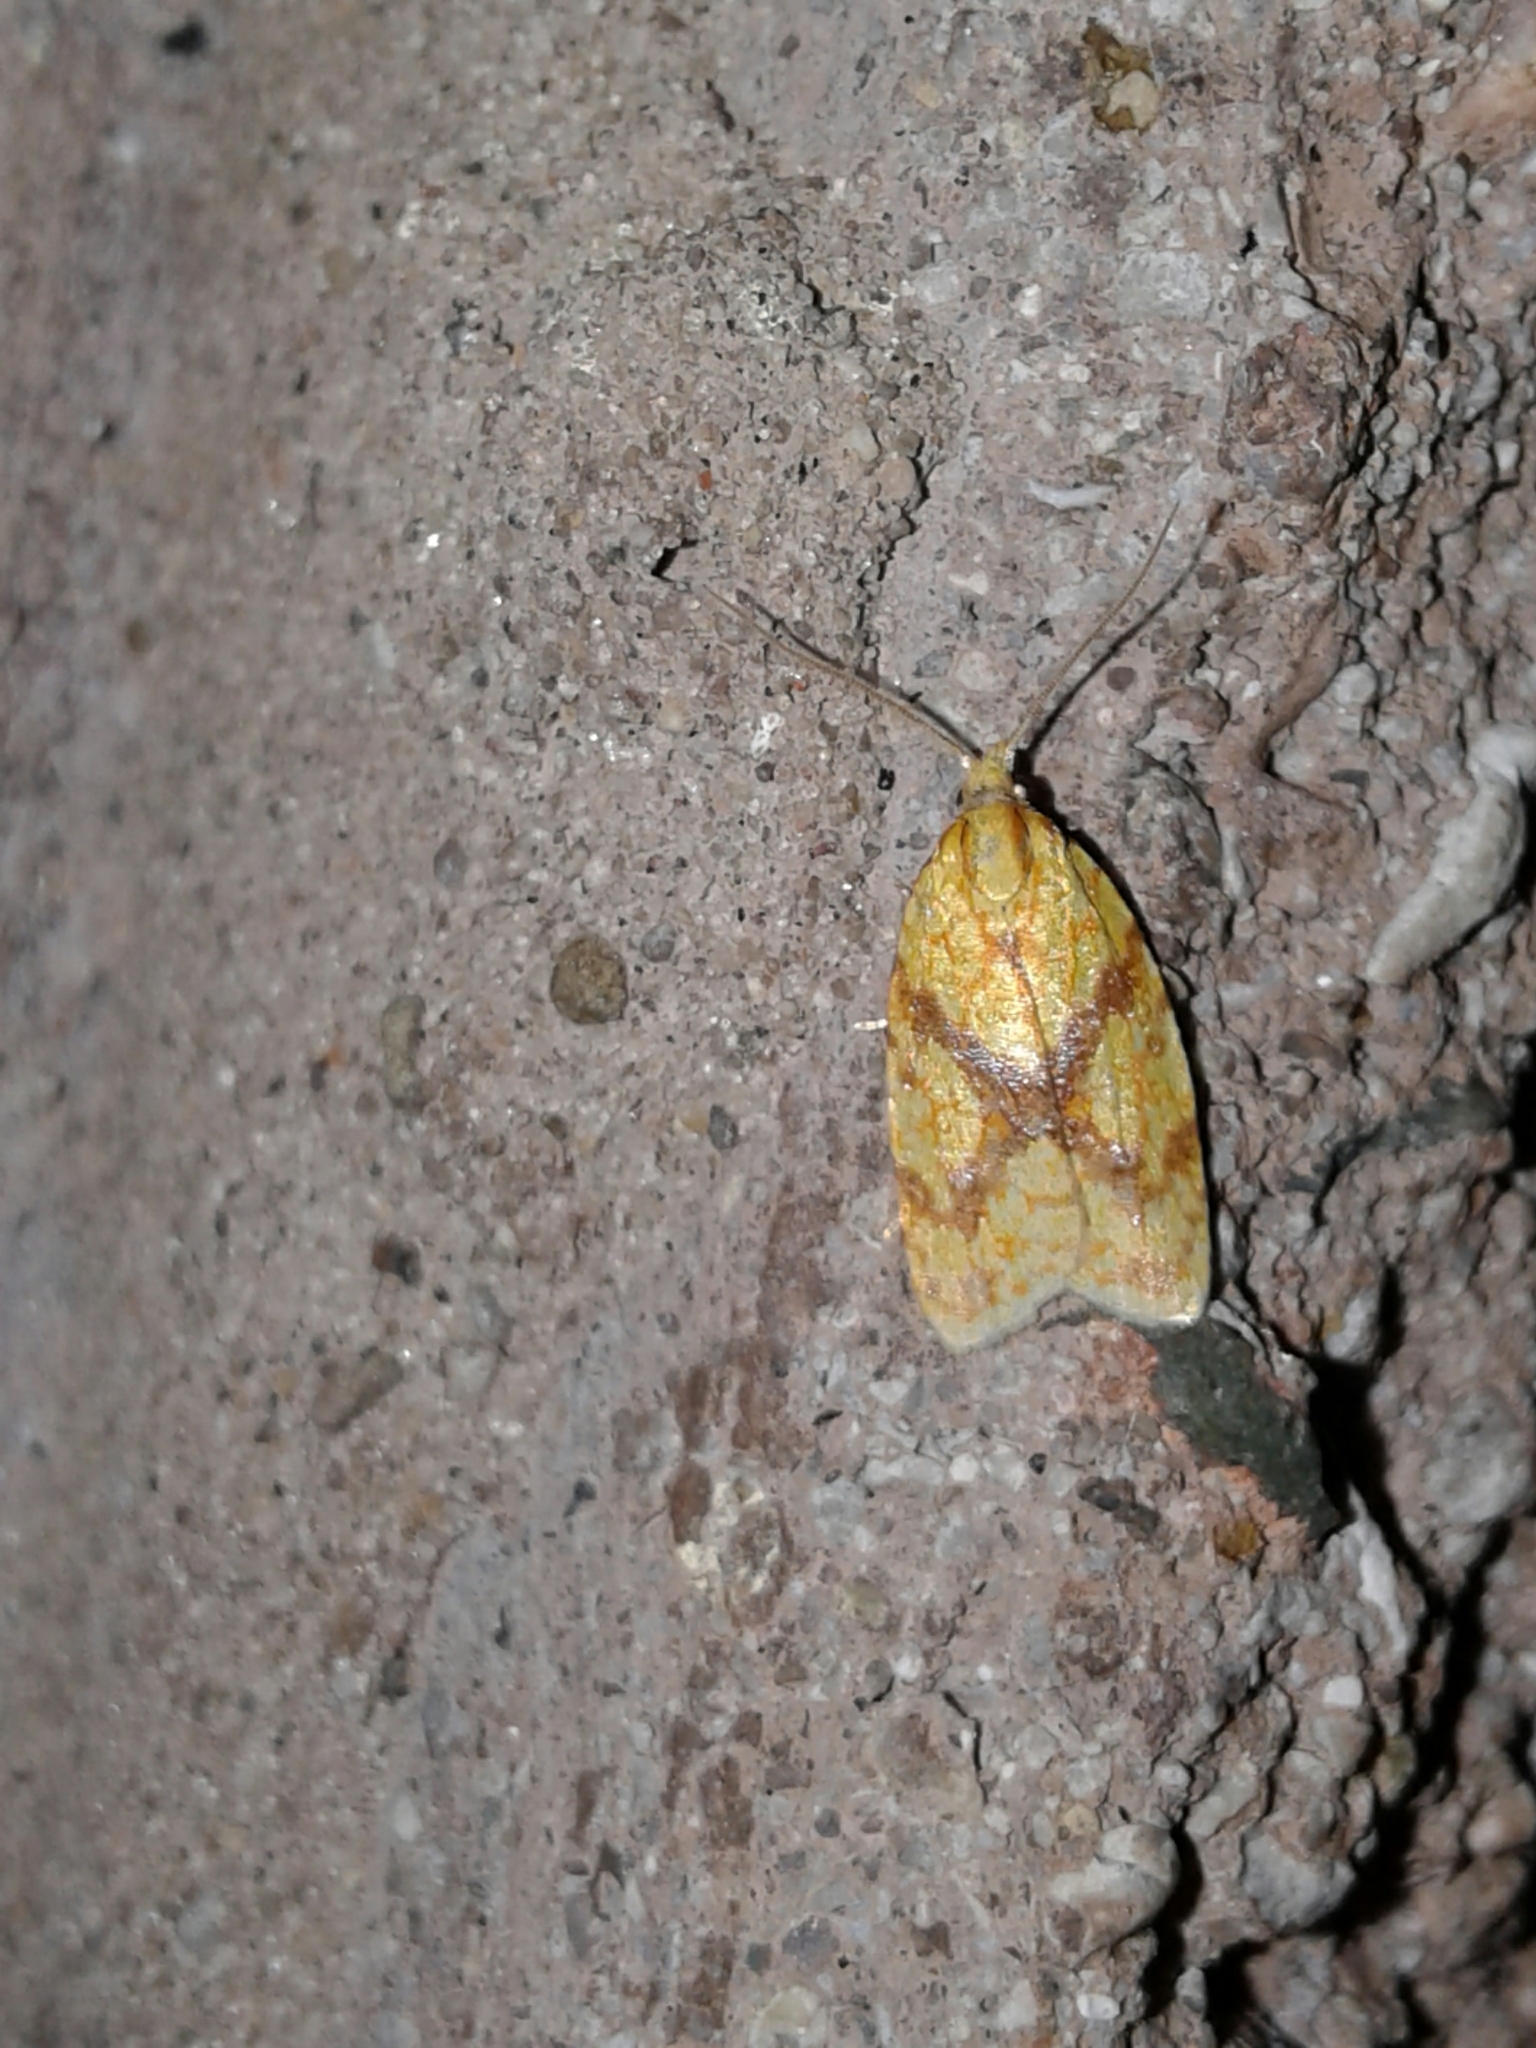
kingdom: Animalia
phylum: Arthropoda
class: Insecta
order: Lepidoptera
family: Tortricidae
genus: Sparganothis
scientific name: Sparganothis sulfureana
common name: Sparganothis fruitworm moth
